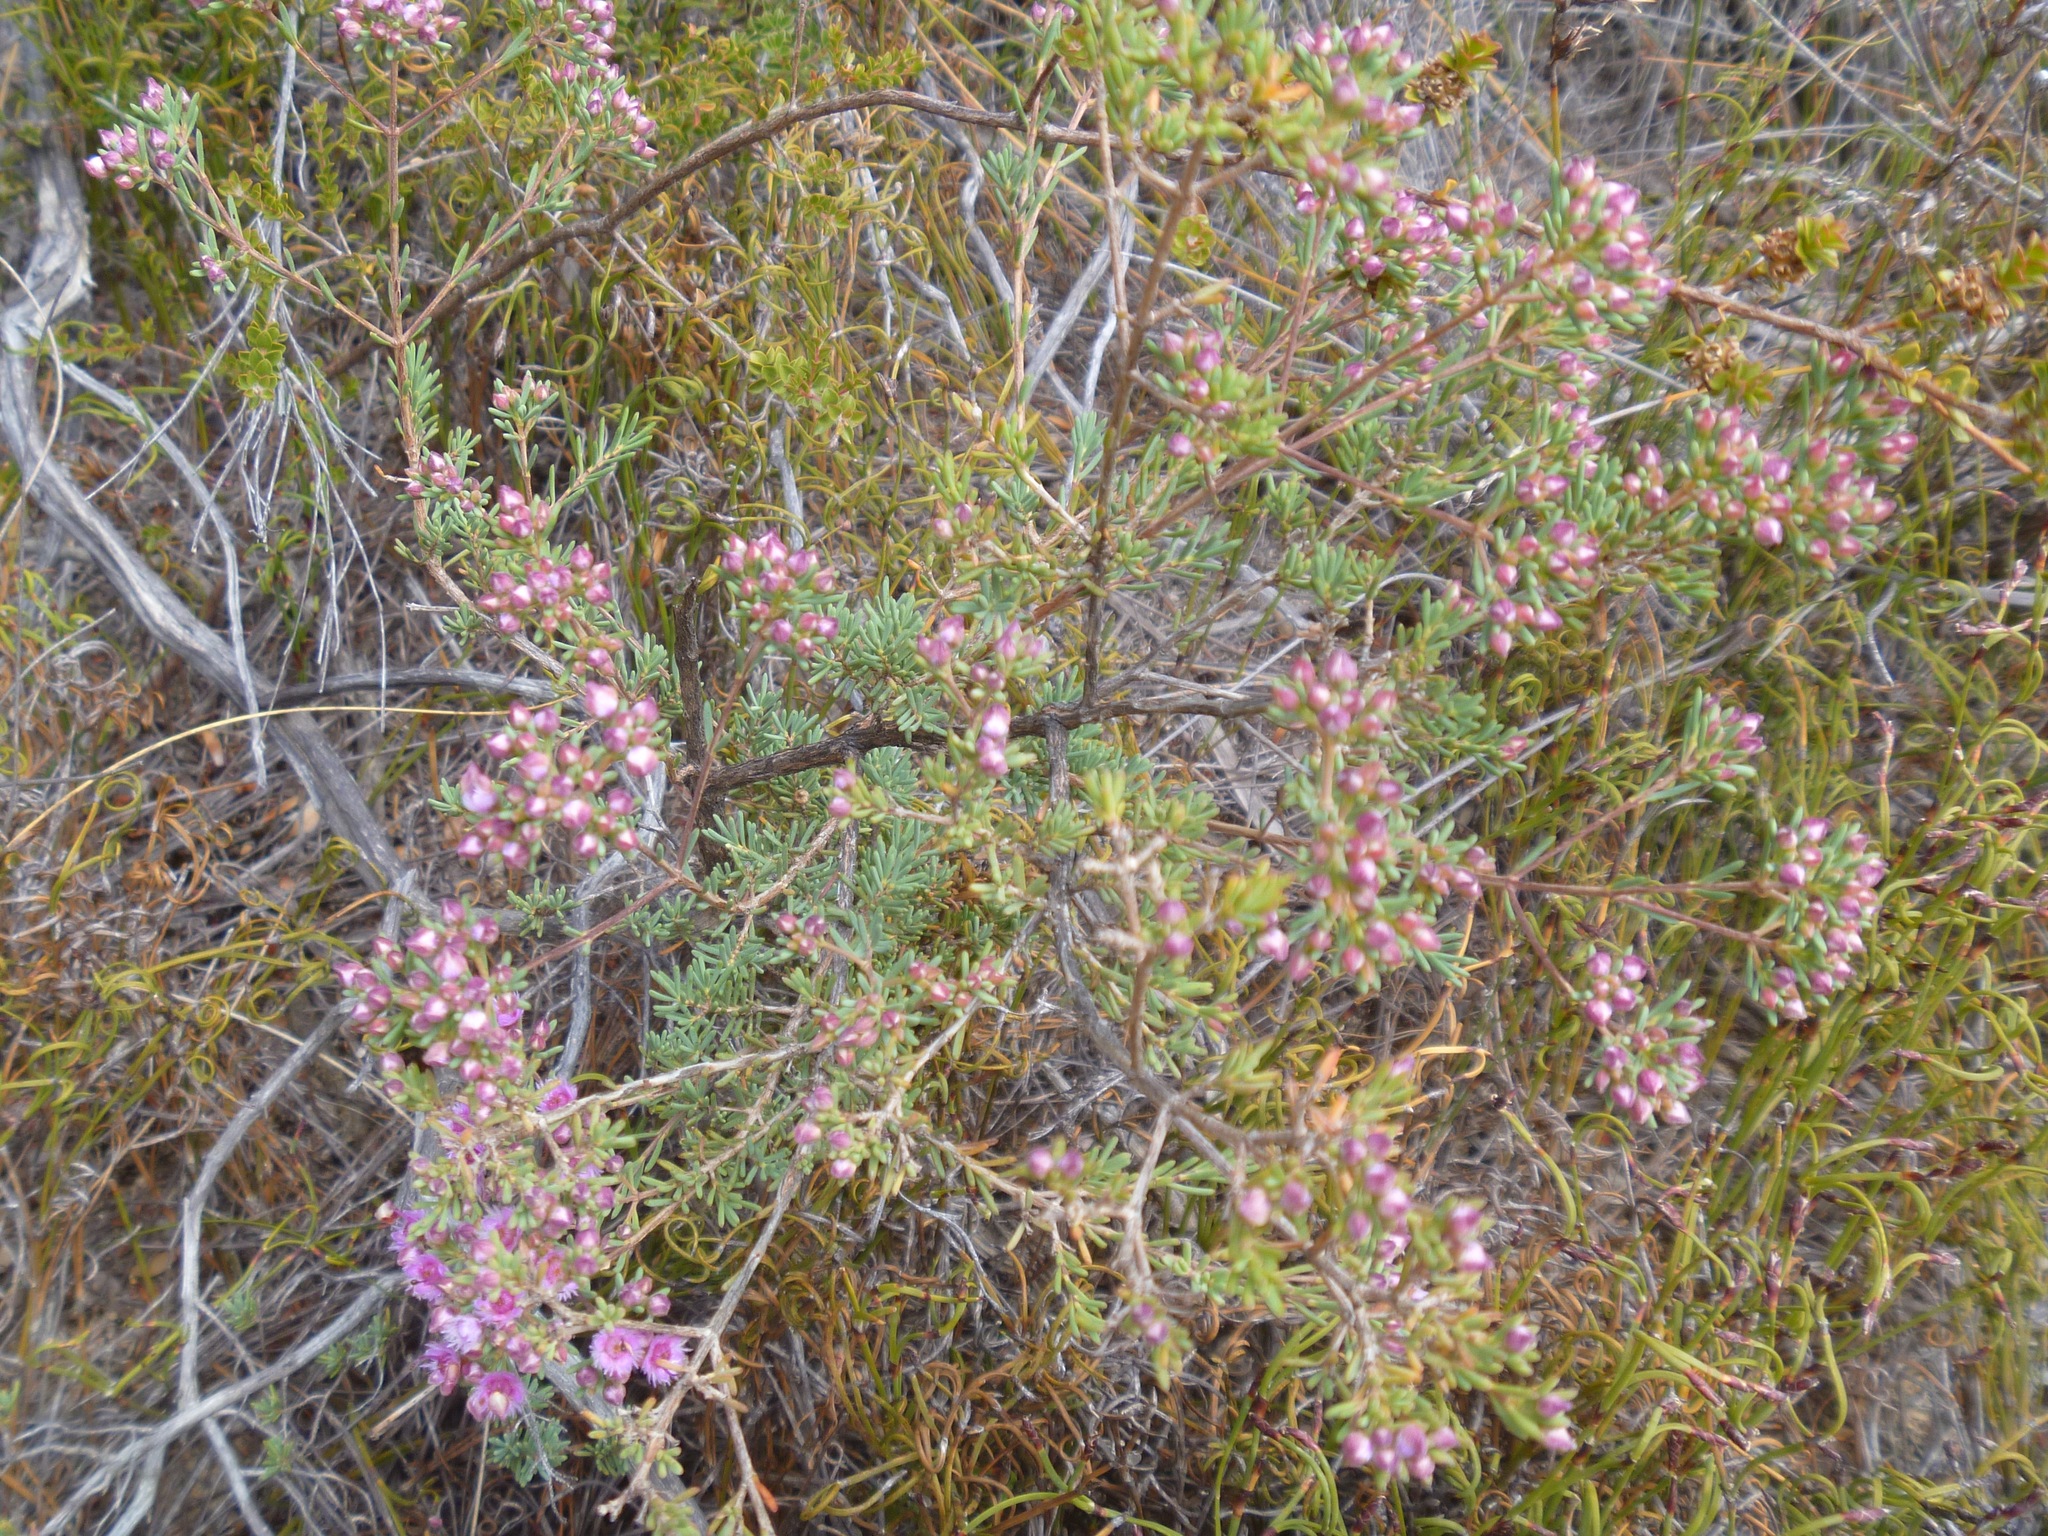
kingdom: Plantae
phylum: Tracheophyta
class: Magnoliopsida
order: Myrtales
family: Myrtaceae
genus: Verticordia
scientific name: Verticordia sieberi
